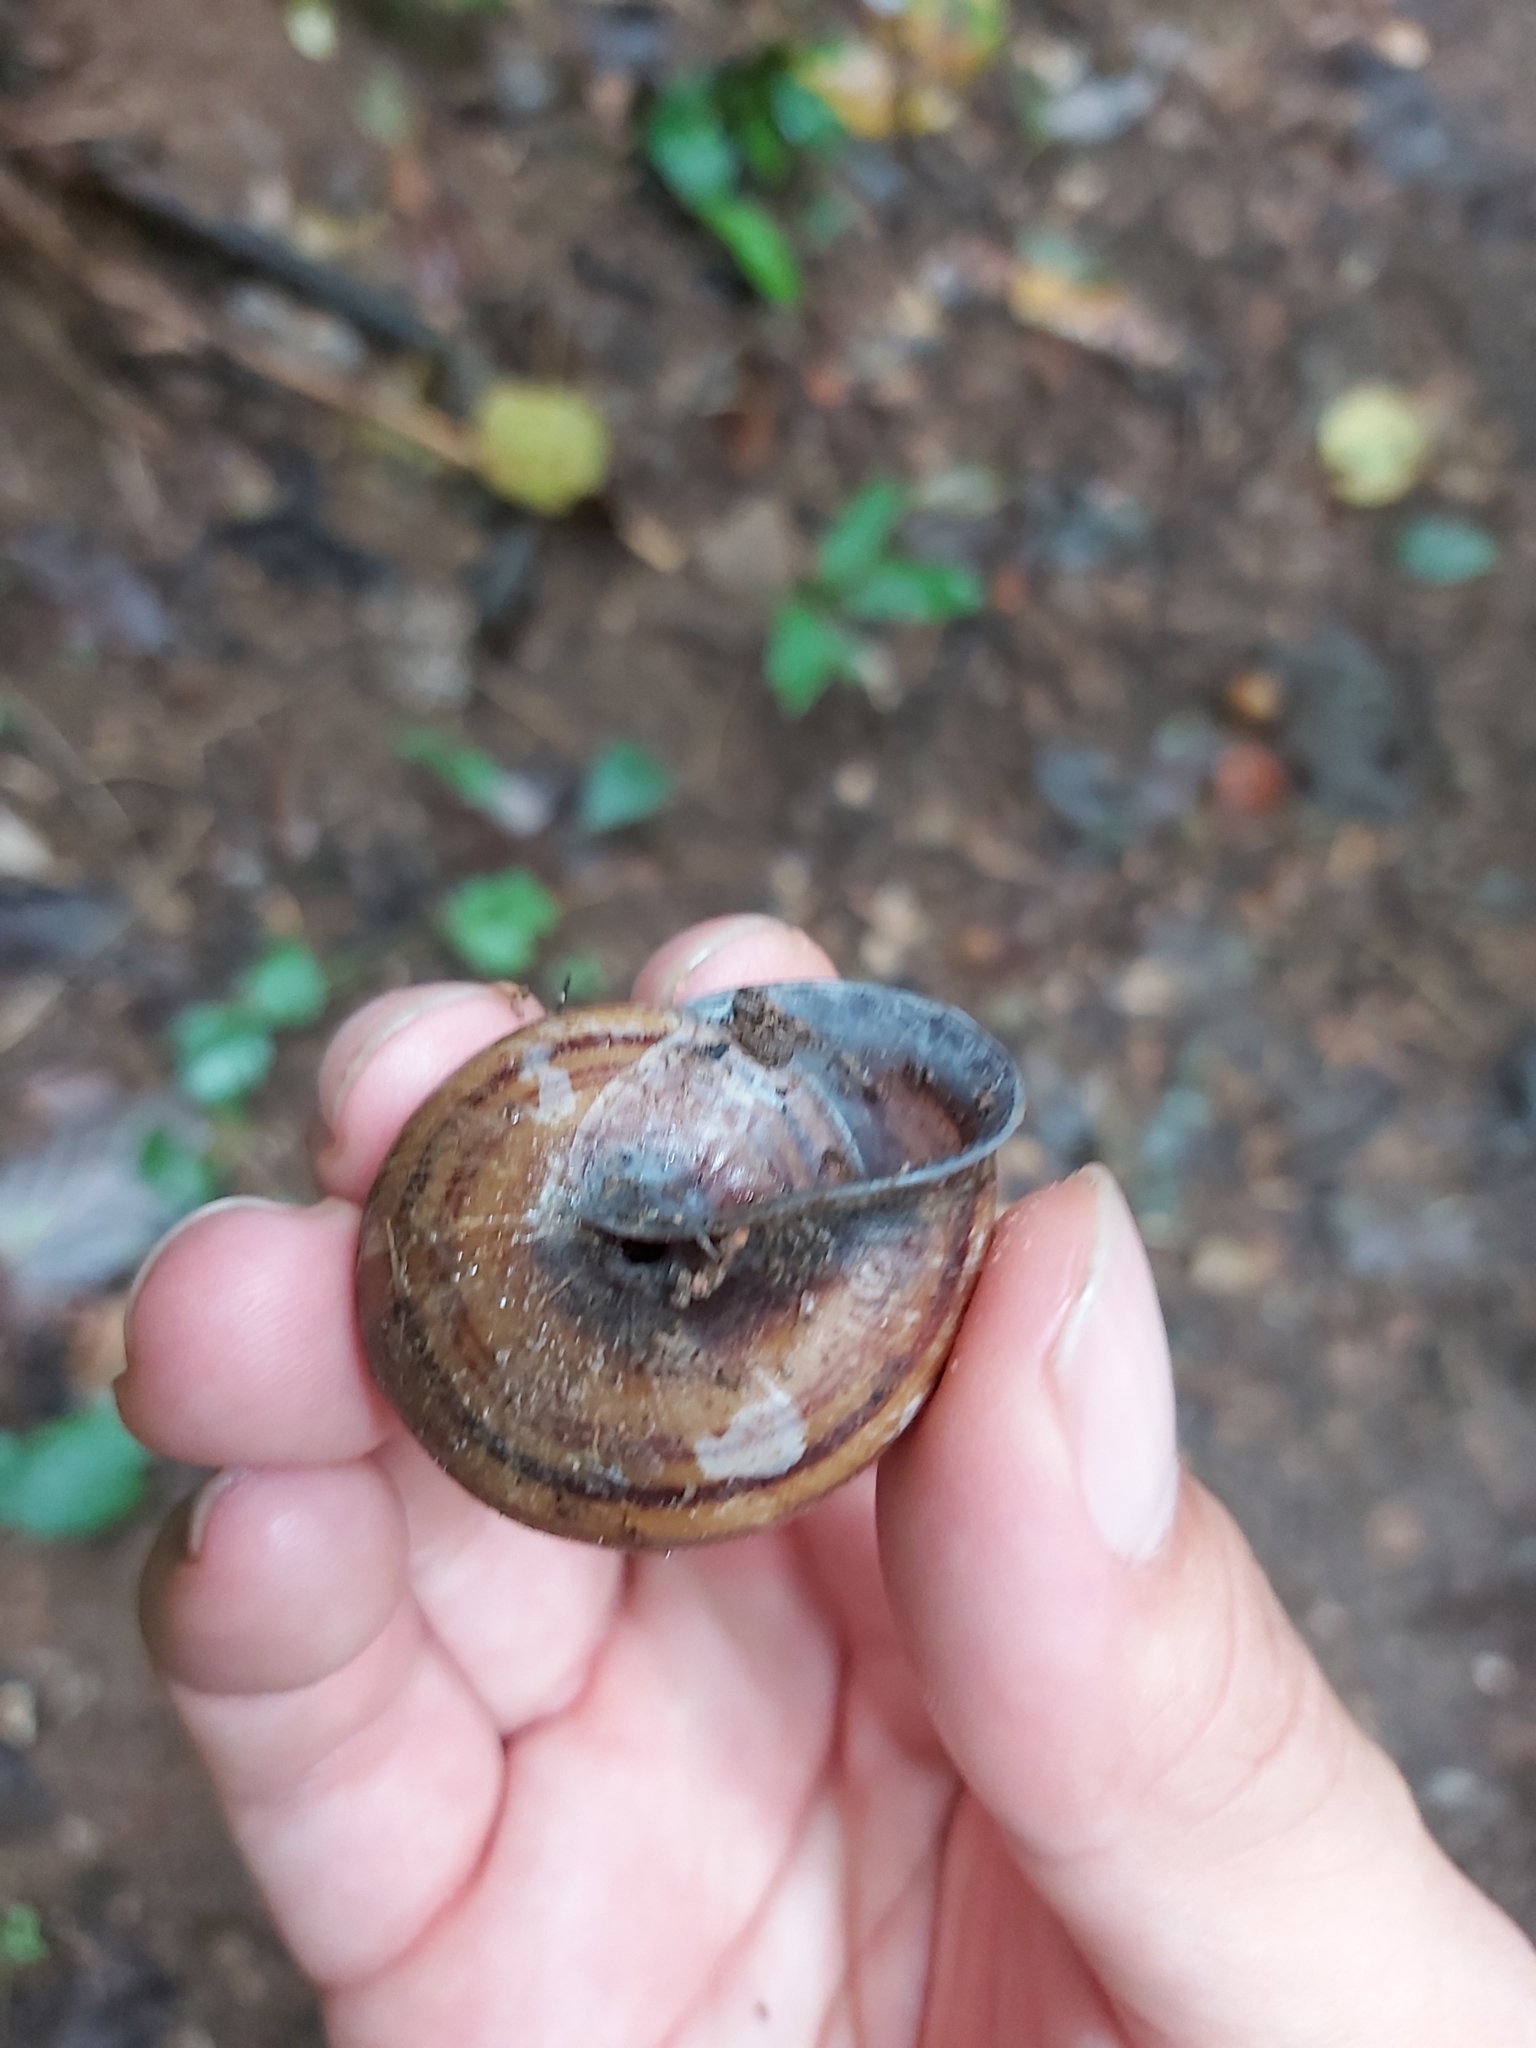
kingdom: Animalia
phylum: Mollusca
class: Gastropoda
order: Stylommatophora
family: Camaenidae
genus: Steorra
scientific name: Steorra mourilyani
